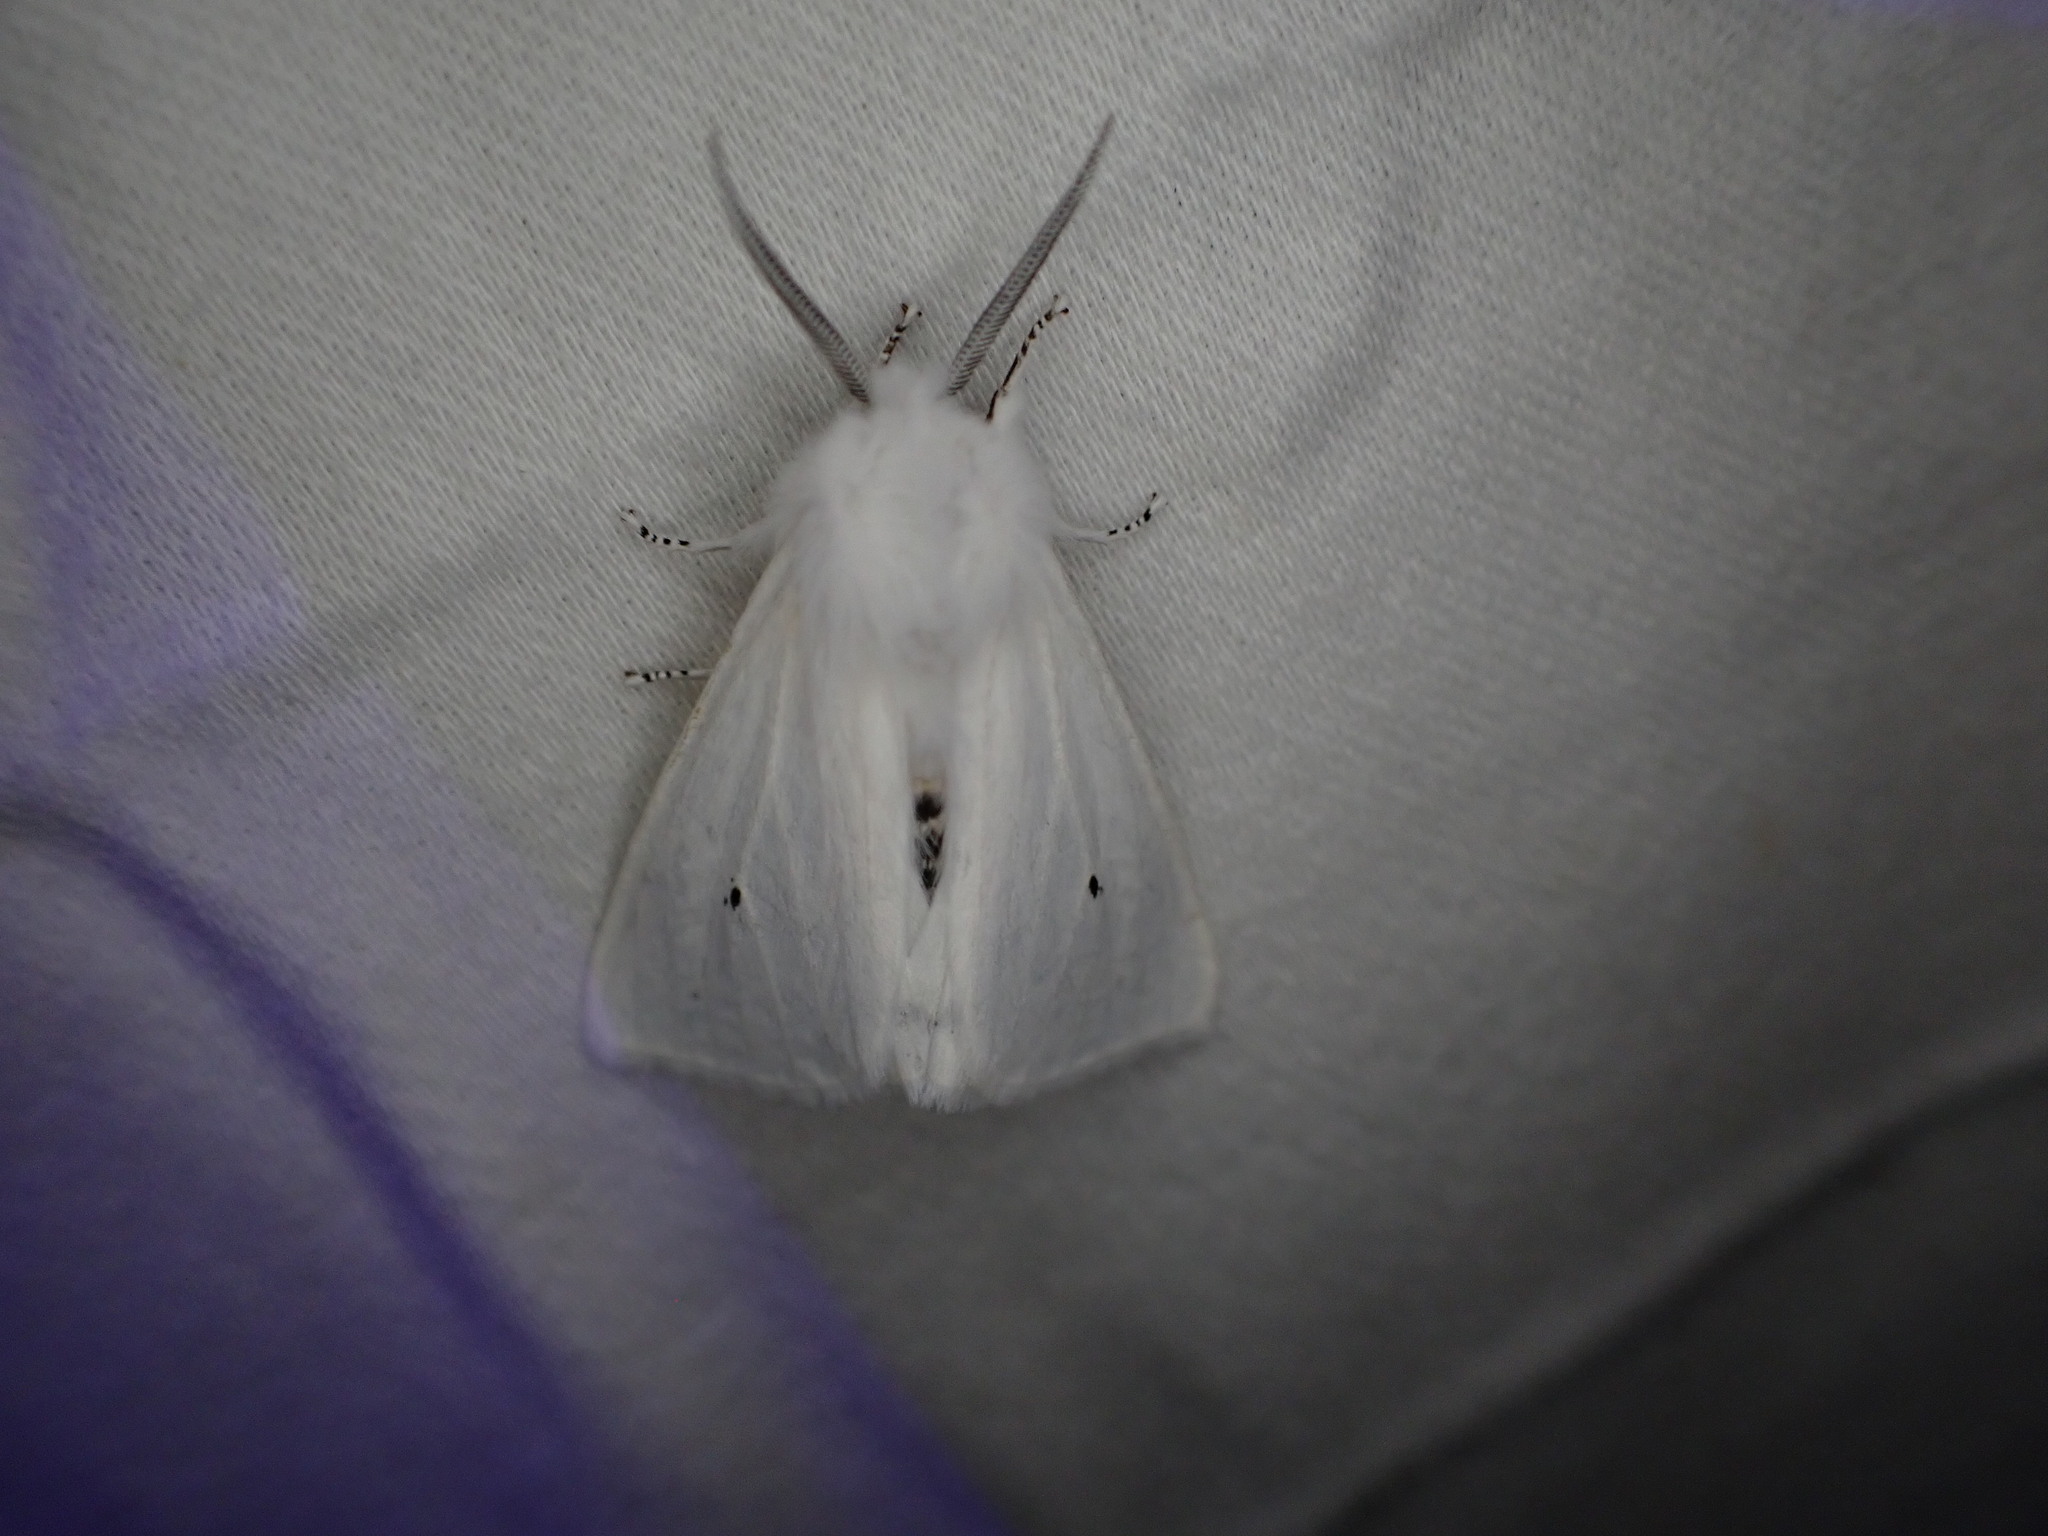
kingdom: Animalia
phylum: Arthropoda
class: Insecta
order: Lepidoptera
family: Erebidae
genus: Spilosoma
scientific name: Spilosoma virginica
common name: Virginia tiger moth
